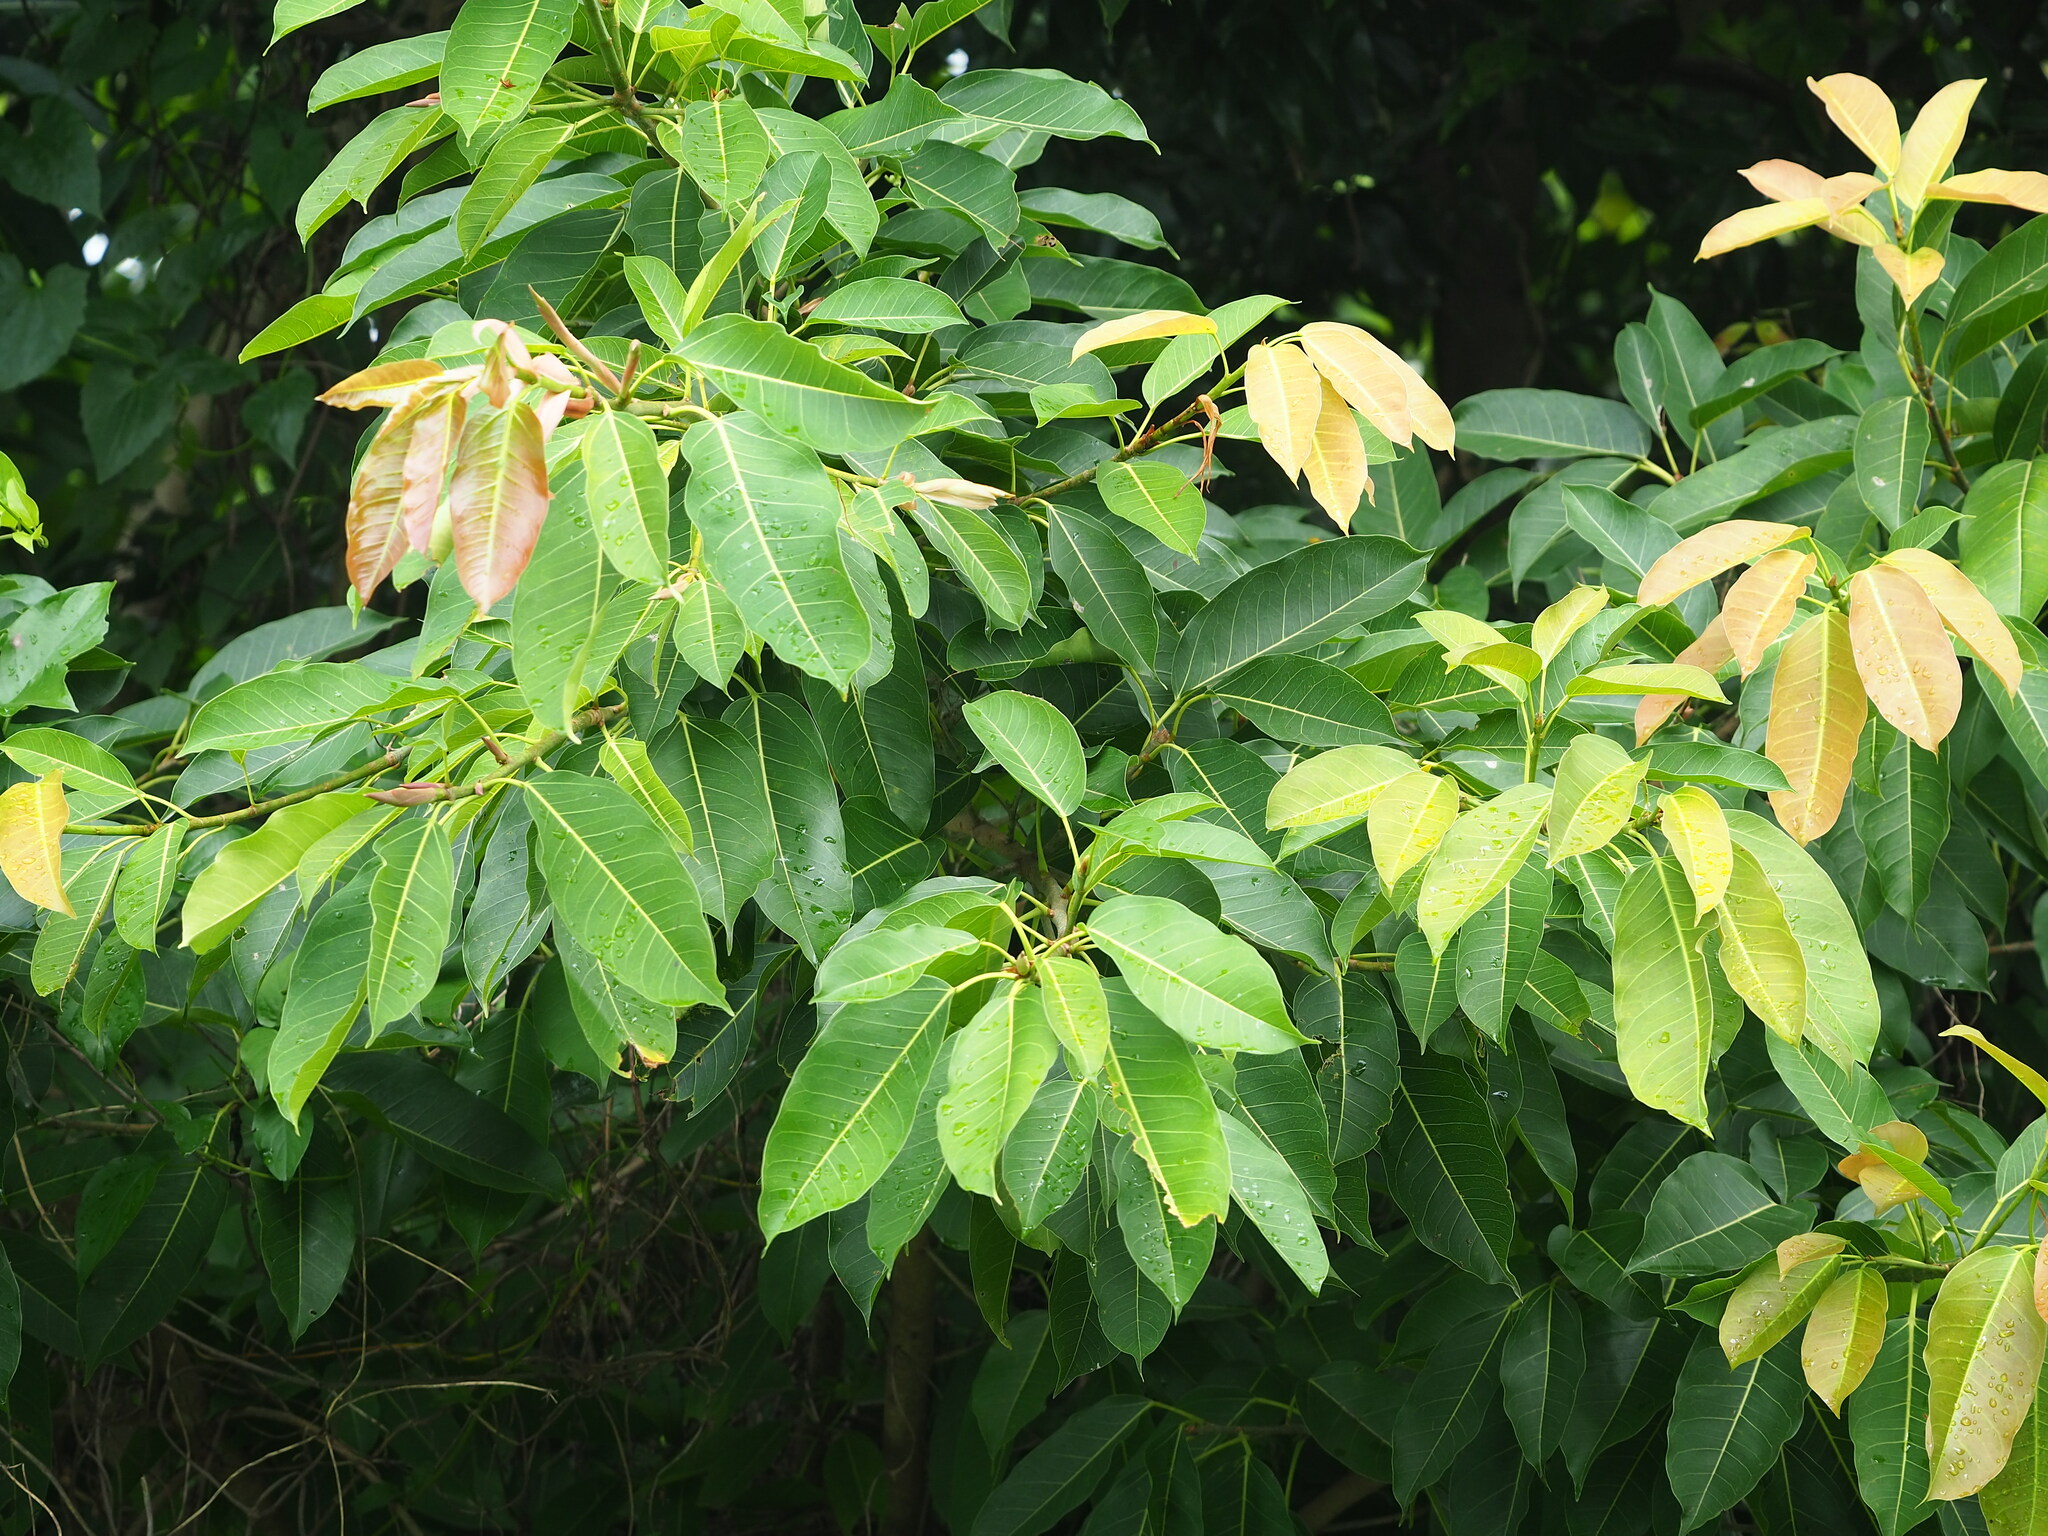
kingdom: Plantae
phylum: Tracheophyta
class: Magnoliopsida
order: Rosales
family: Moraceae
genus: Ficus
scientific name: Ficus caulocarpa
